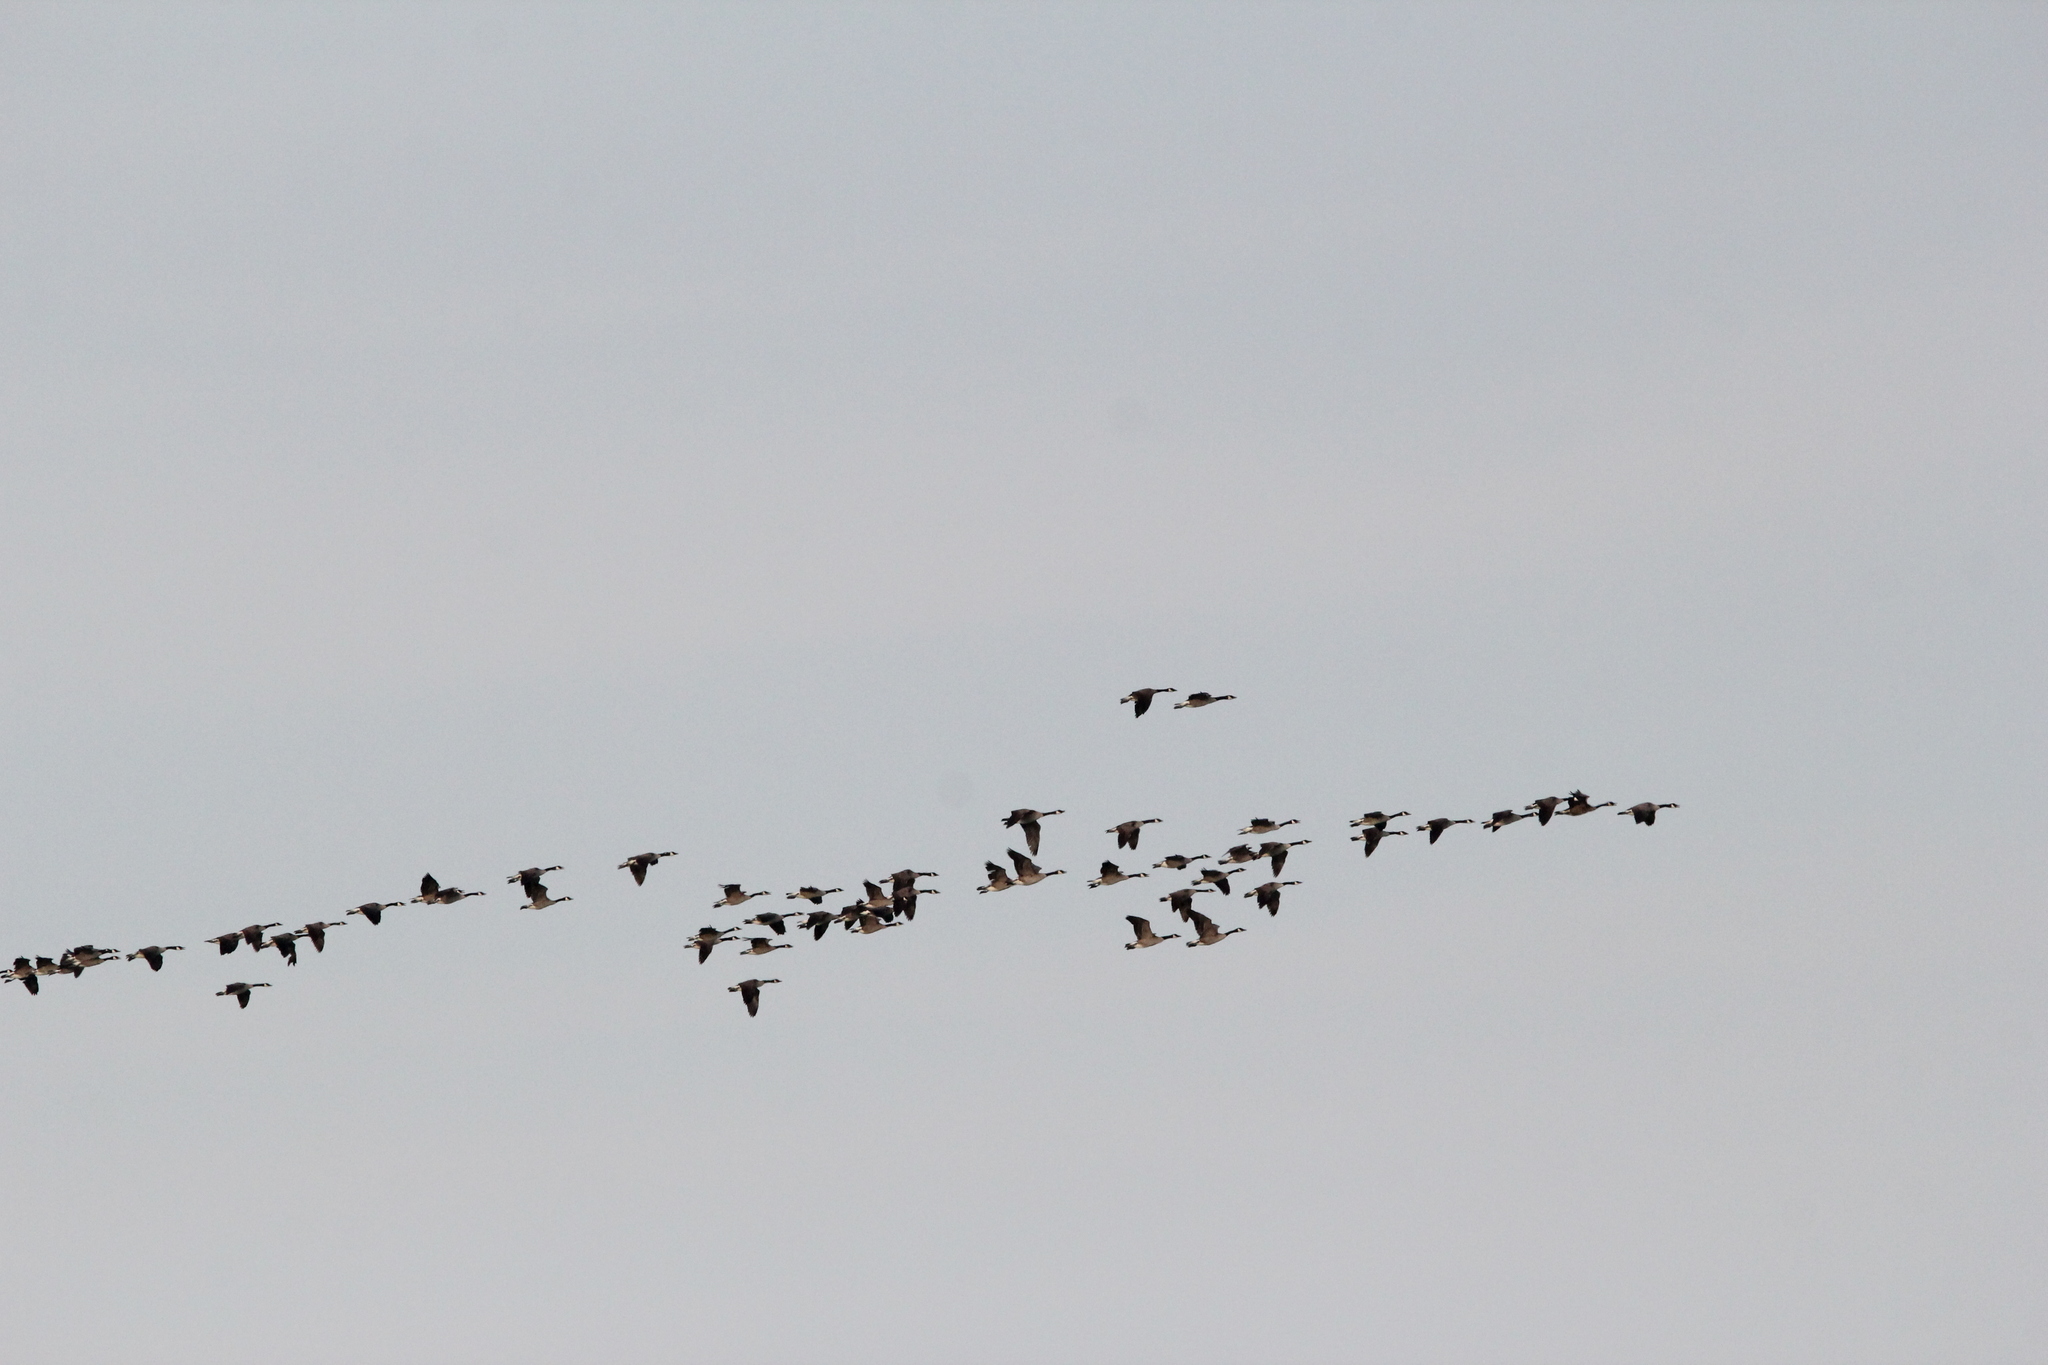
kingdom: Animalia
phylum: Chordata
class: Aves
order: Anseriformes
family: Anatidae
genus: Branta
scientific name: Branta canadensis
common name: Canada goose
